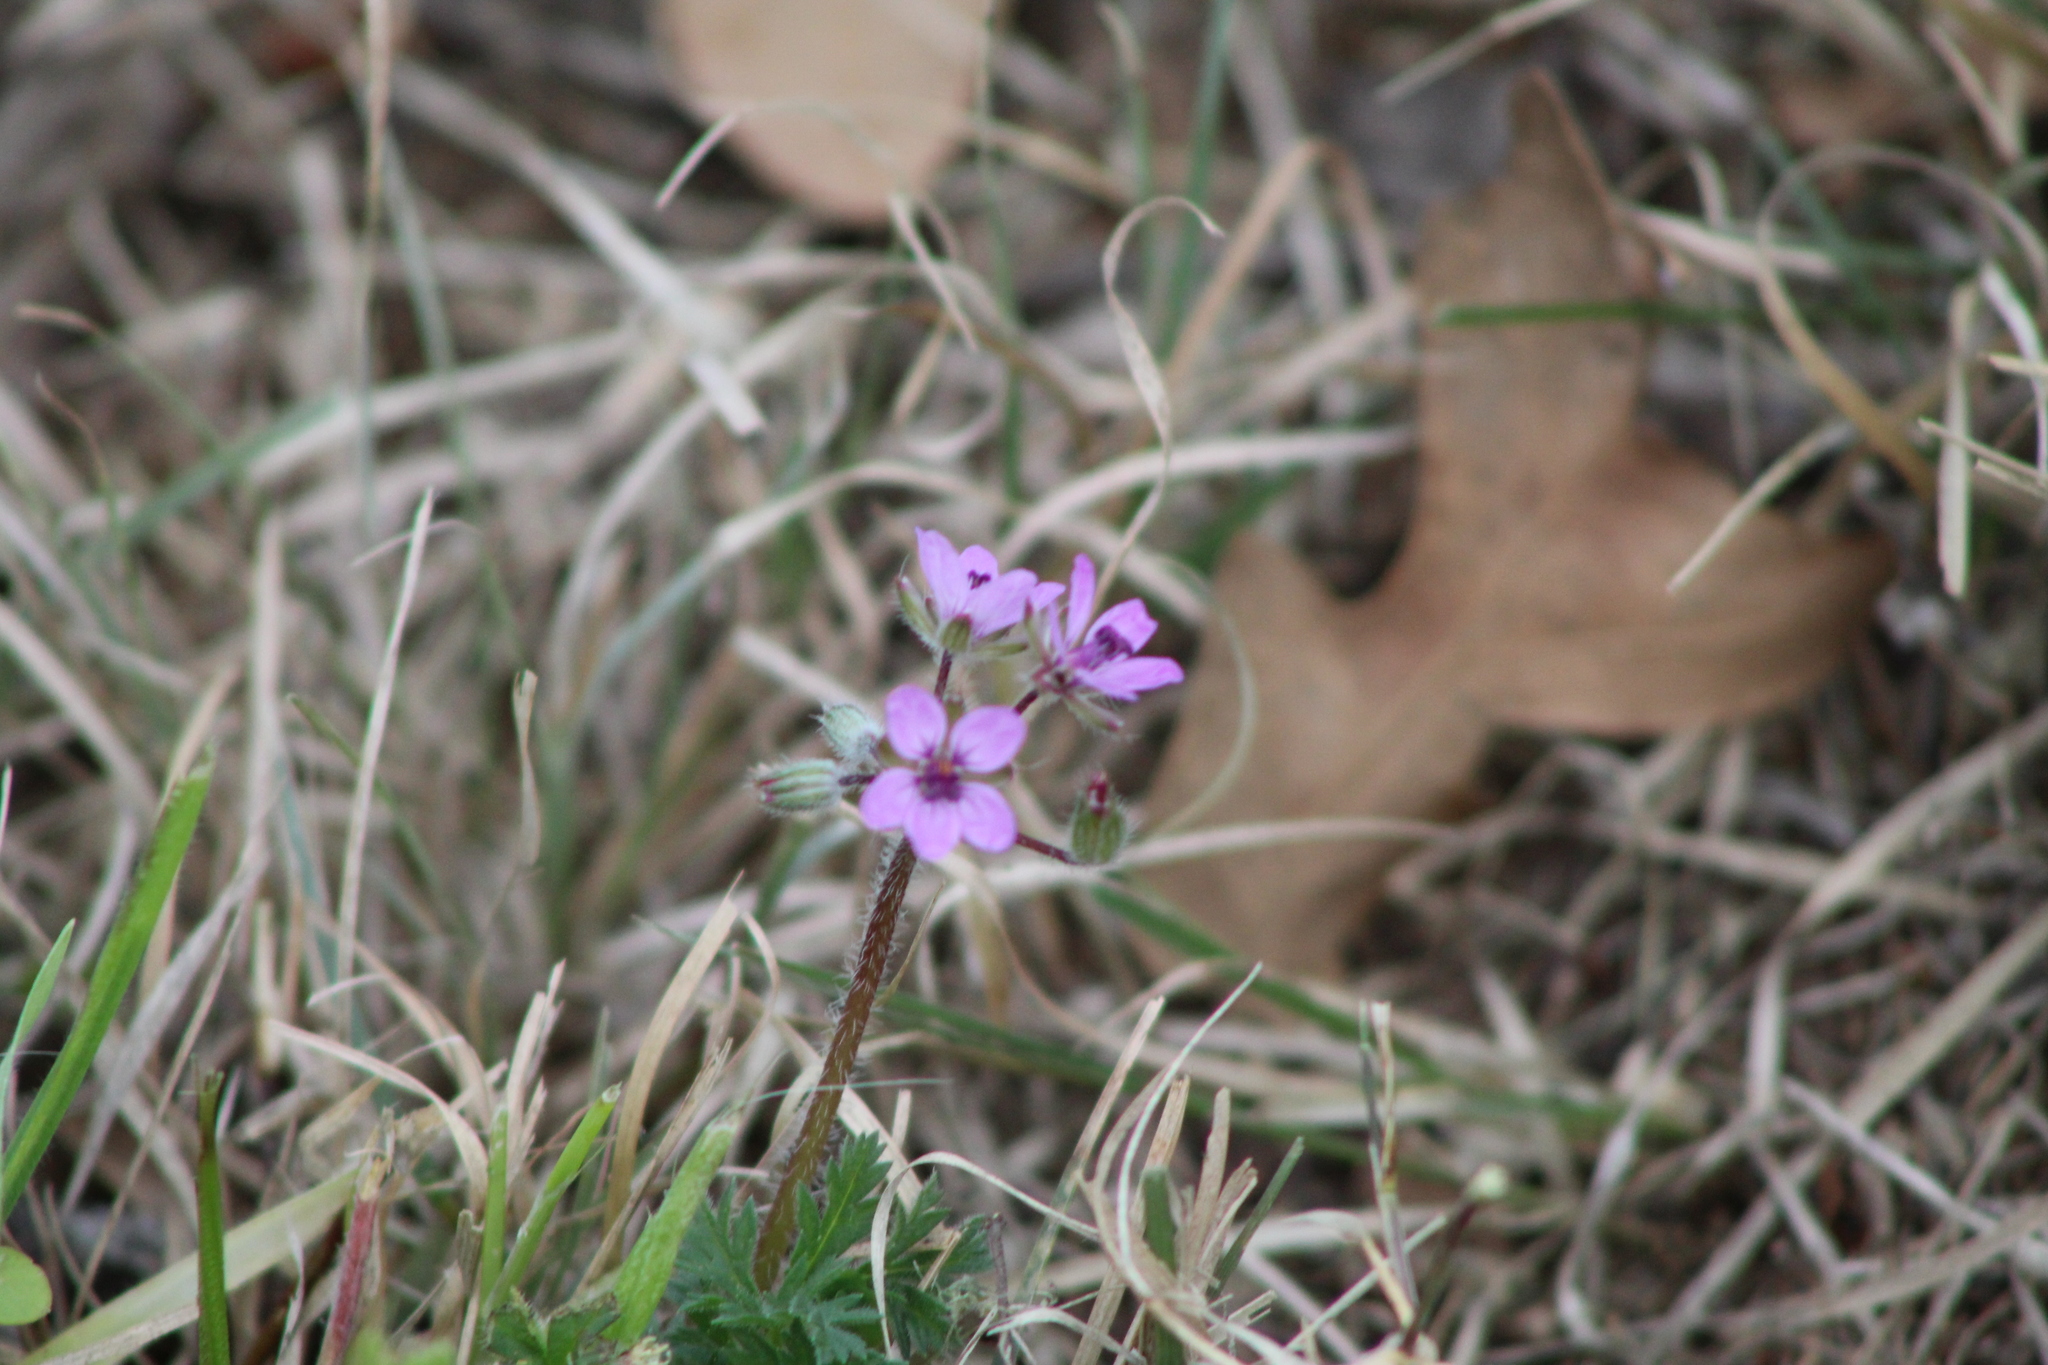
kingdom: Plantae
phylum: Tracheophyta
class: Magnoliopsida
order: Geraniales
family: Geraniaceae
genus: Erodium
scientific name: Erodium cicutarium
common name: Common stork's-bill
